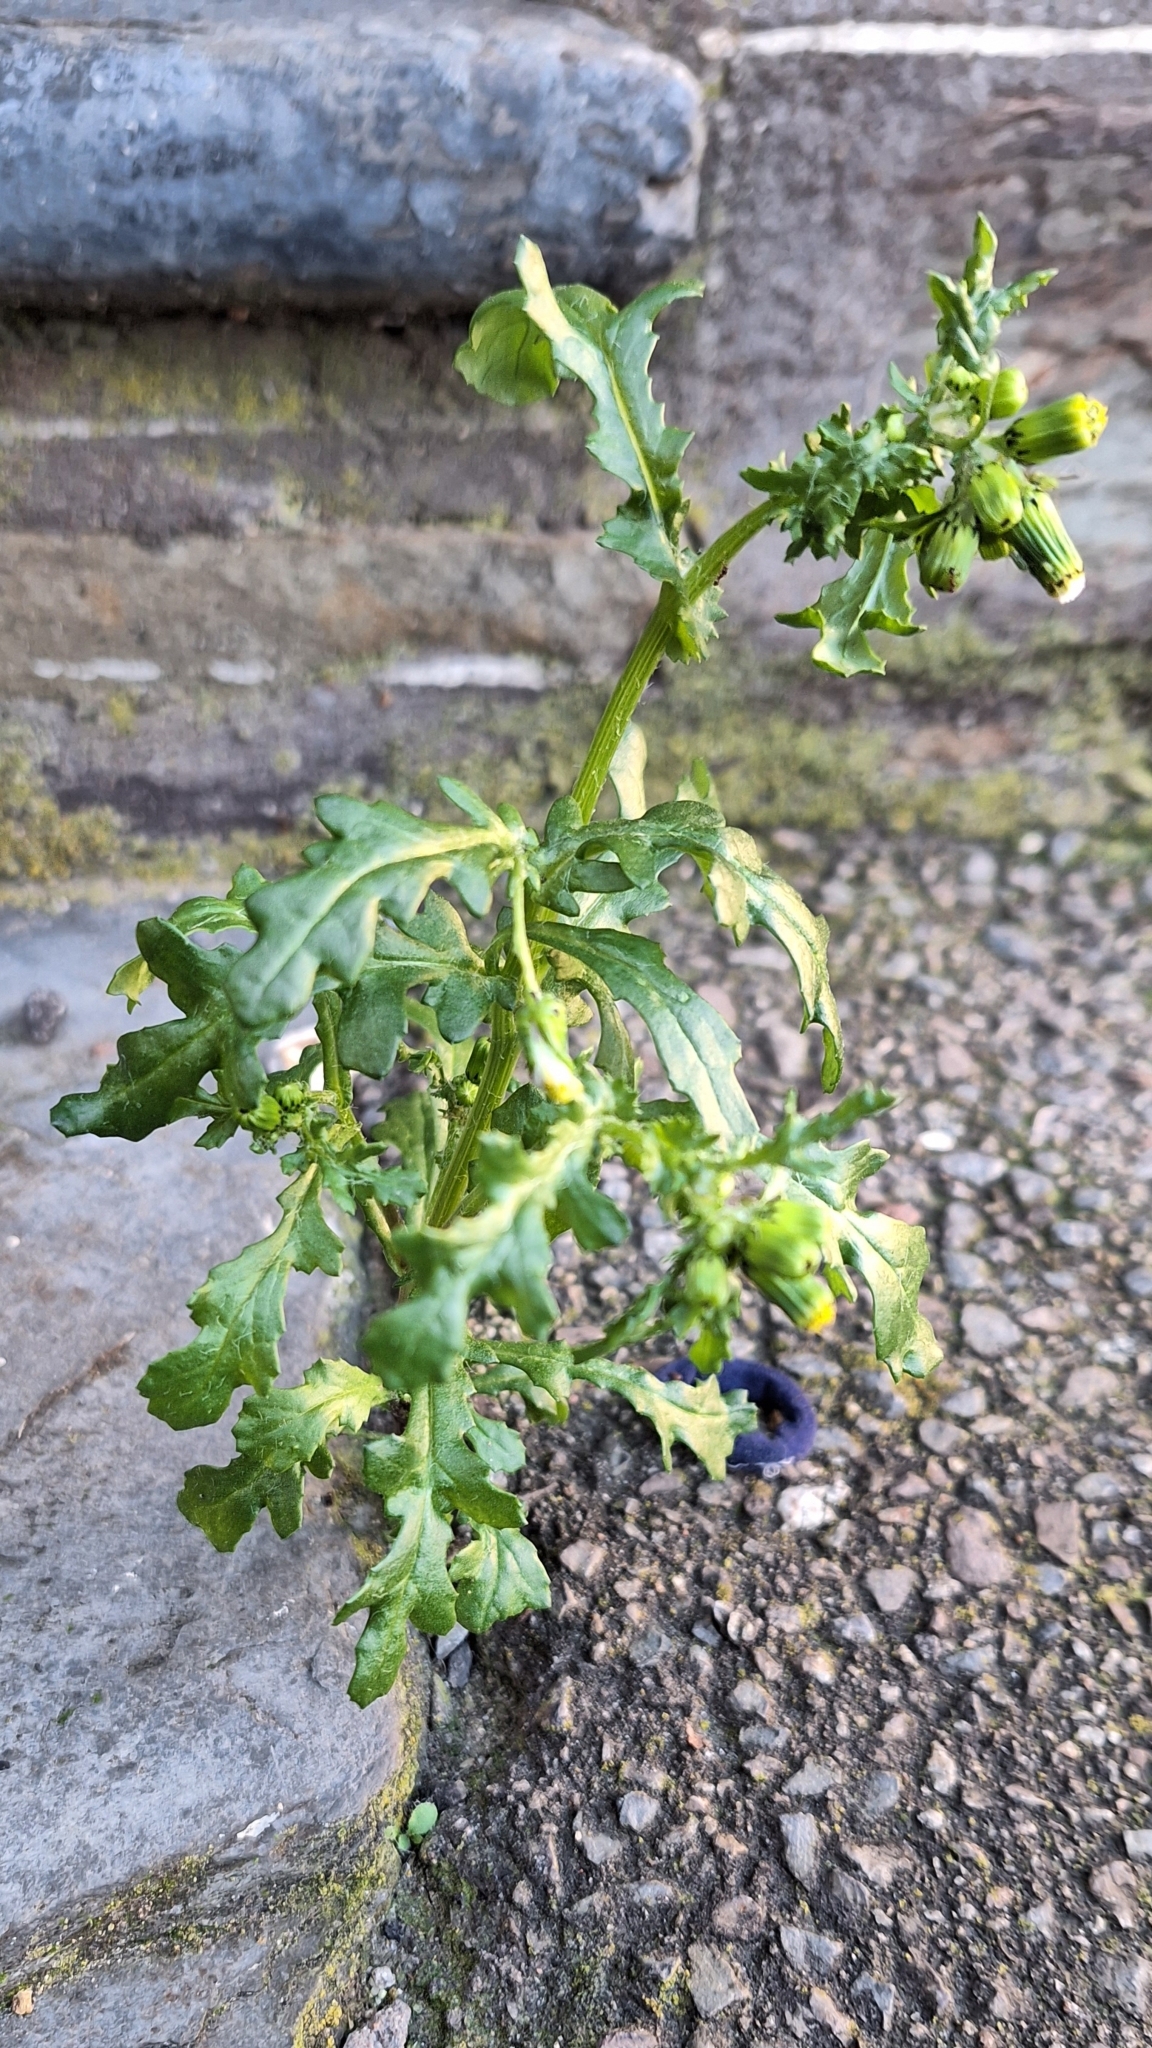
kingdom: Plantae
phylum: Tracheophyta
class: Magnoliopsida
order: Asterales
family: Asteraceae
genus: Senecio
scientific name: Senecio vulgaris
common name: Old-man-in-the-spring
